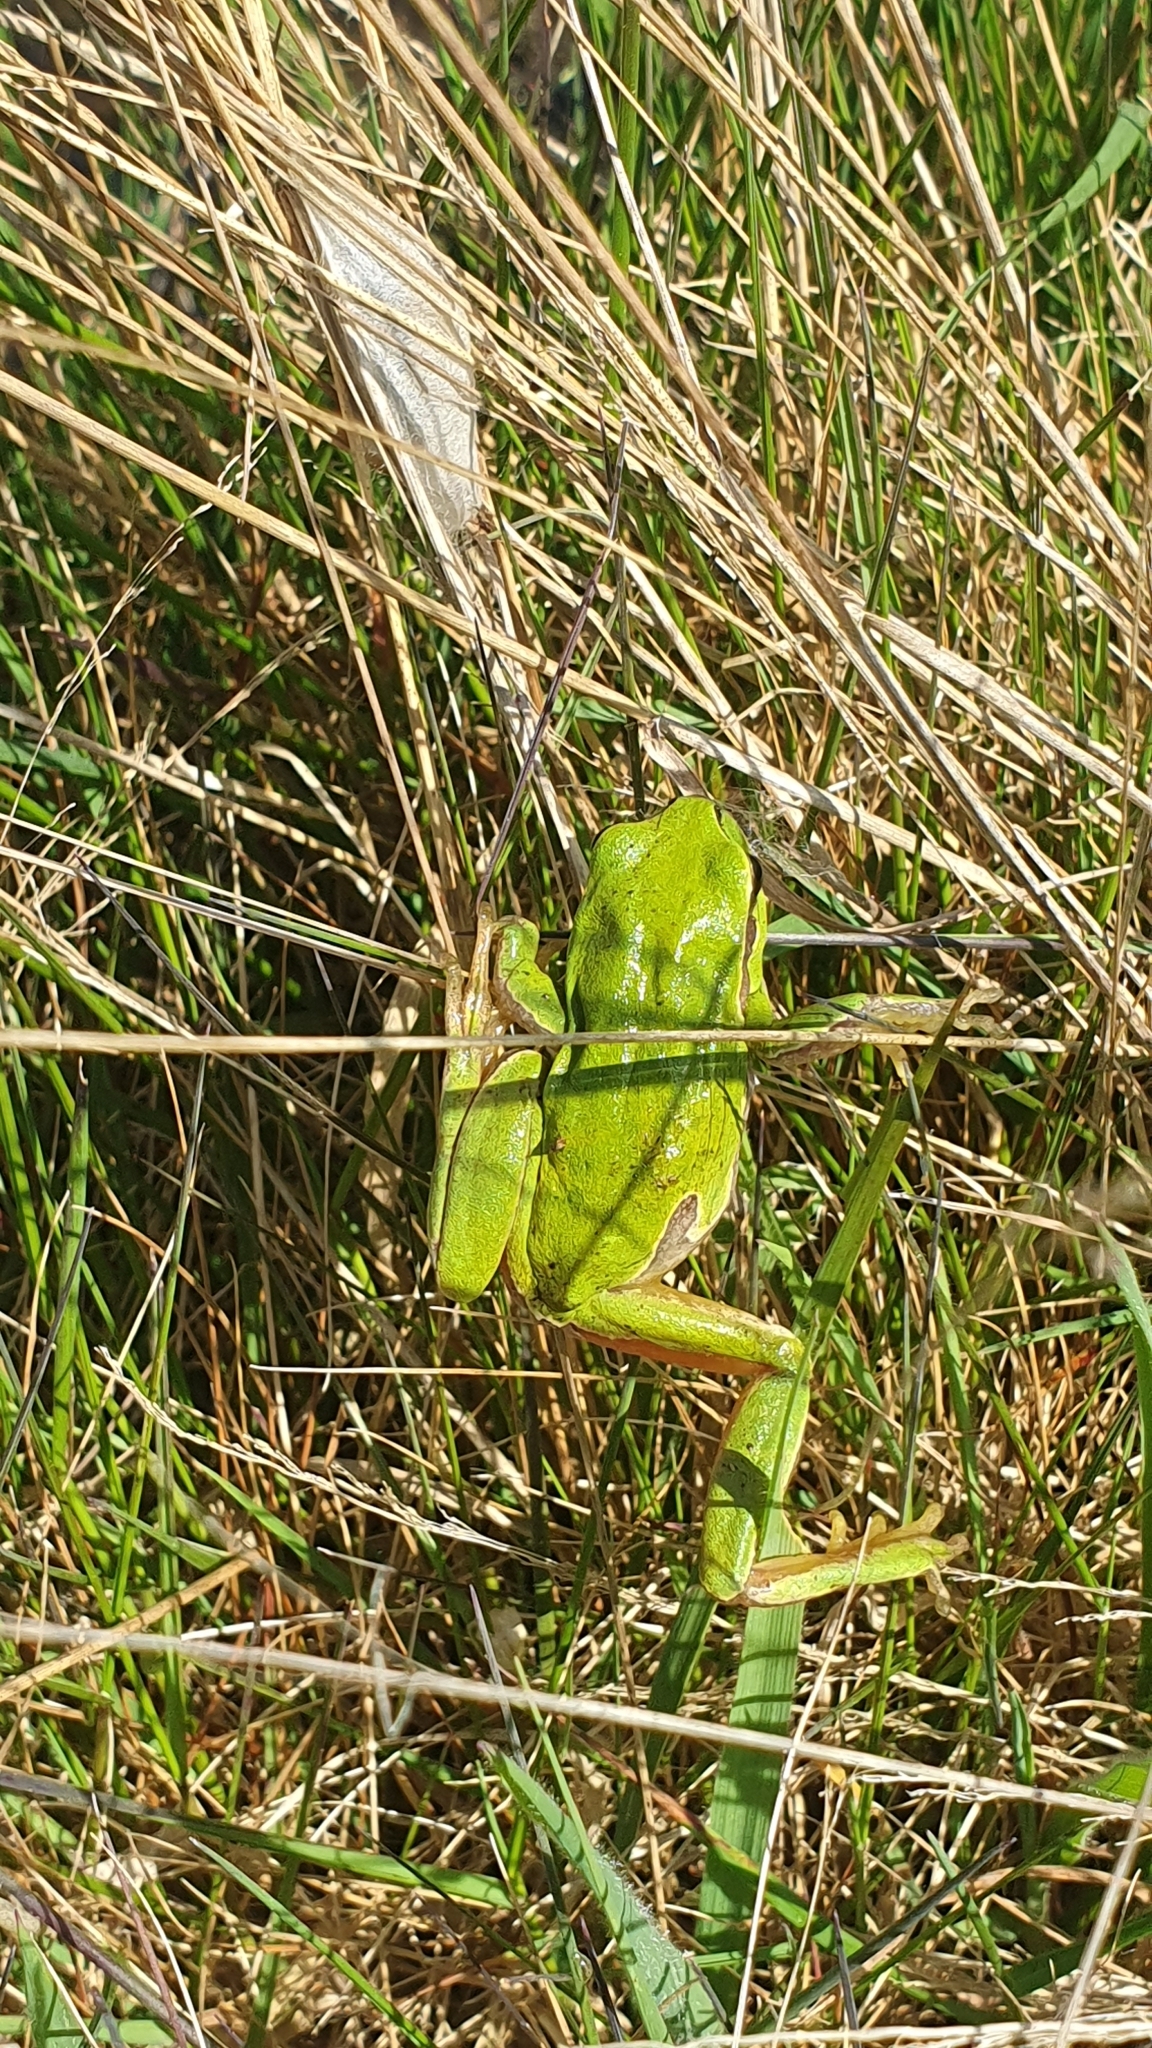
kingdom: Animalia
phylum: Chordata
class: Amphibia
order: Anura
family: Hylidae
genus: Hyla
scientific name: Hyla molleri
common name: Iberian tree frog
